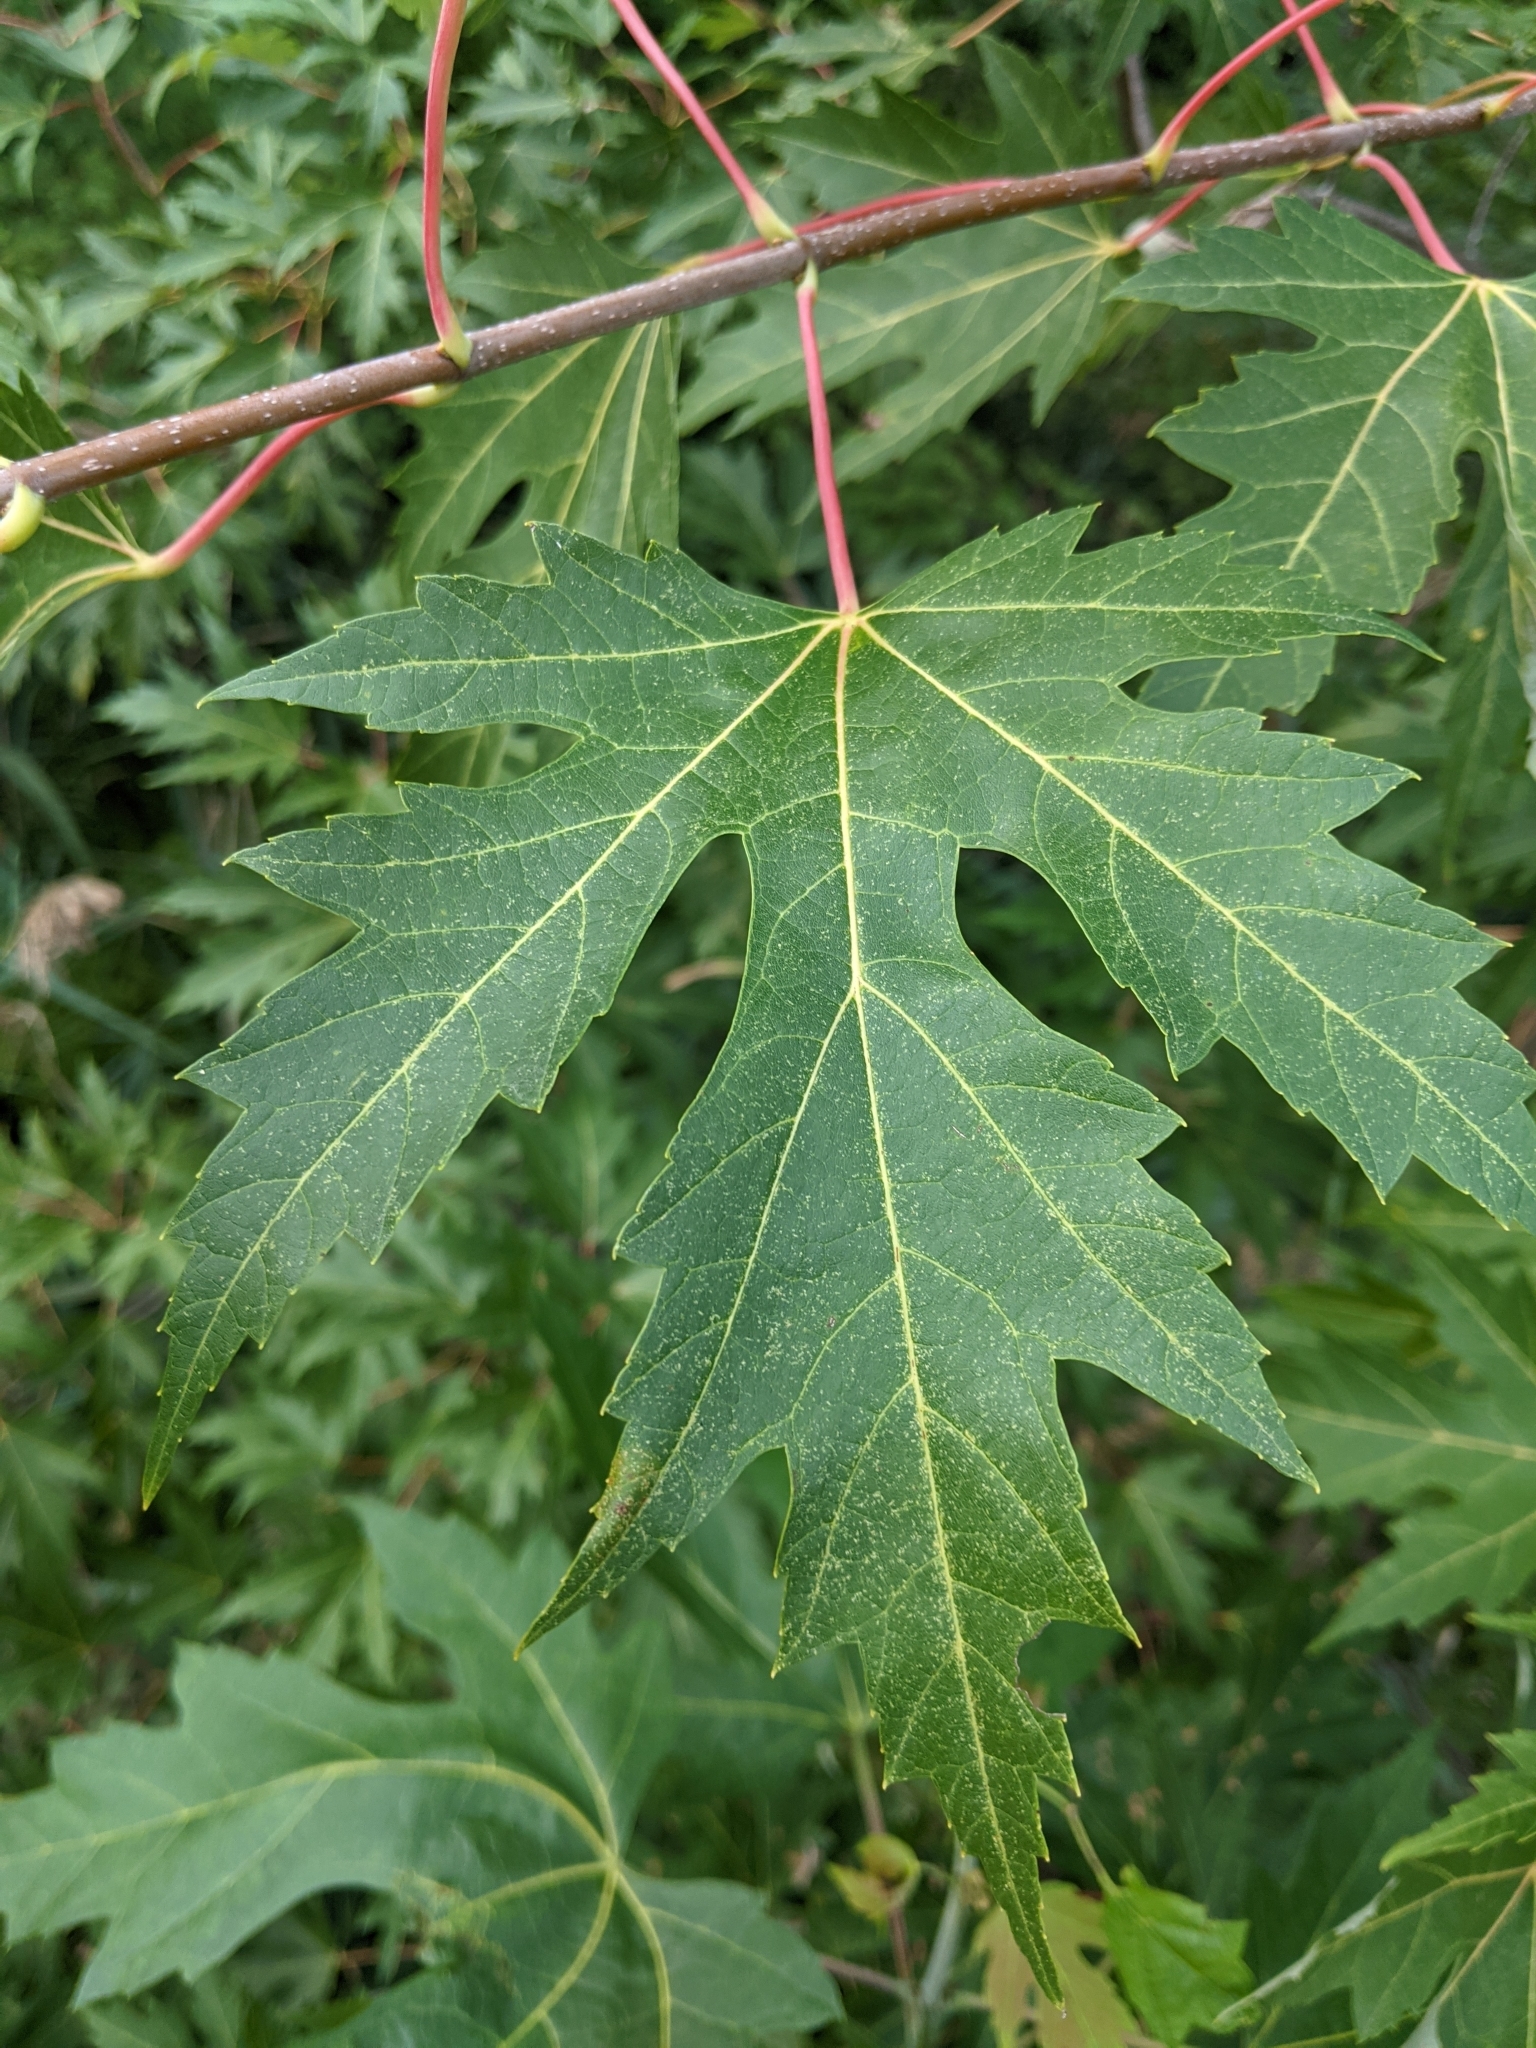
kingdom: Plantae
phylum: Tracheophyta
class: Magnoliopsida
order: Sapindales
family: Sapindaceae
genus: Acer
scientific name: Acer saccharinum
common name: Silver maple
